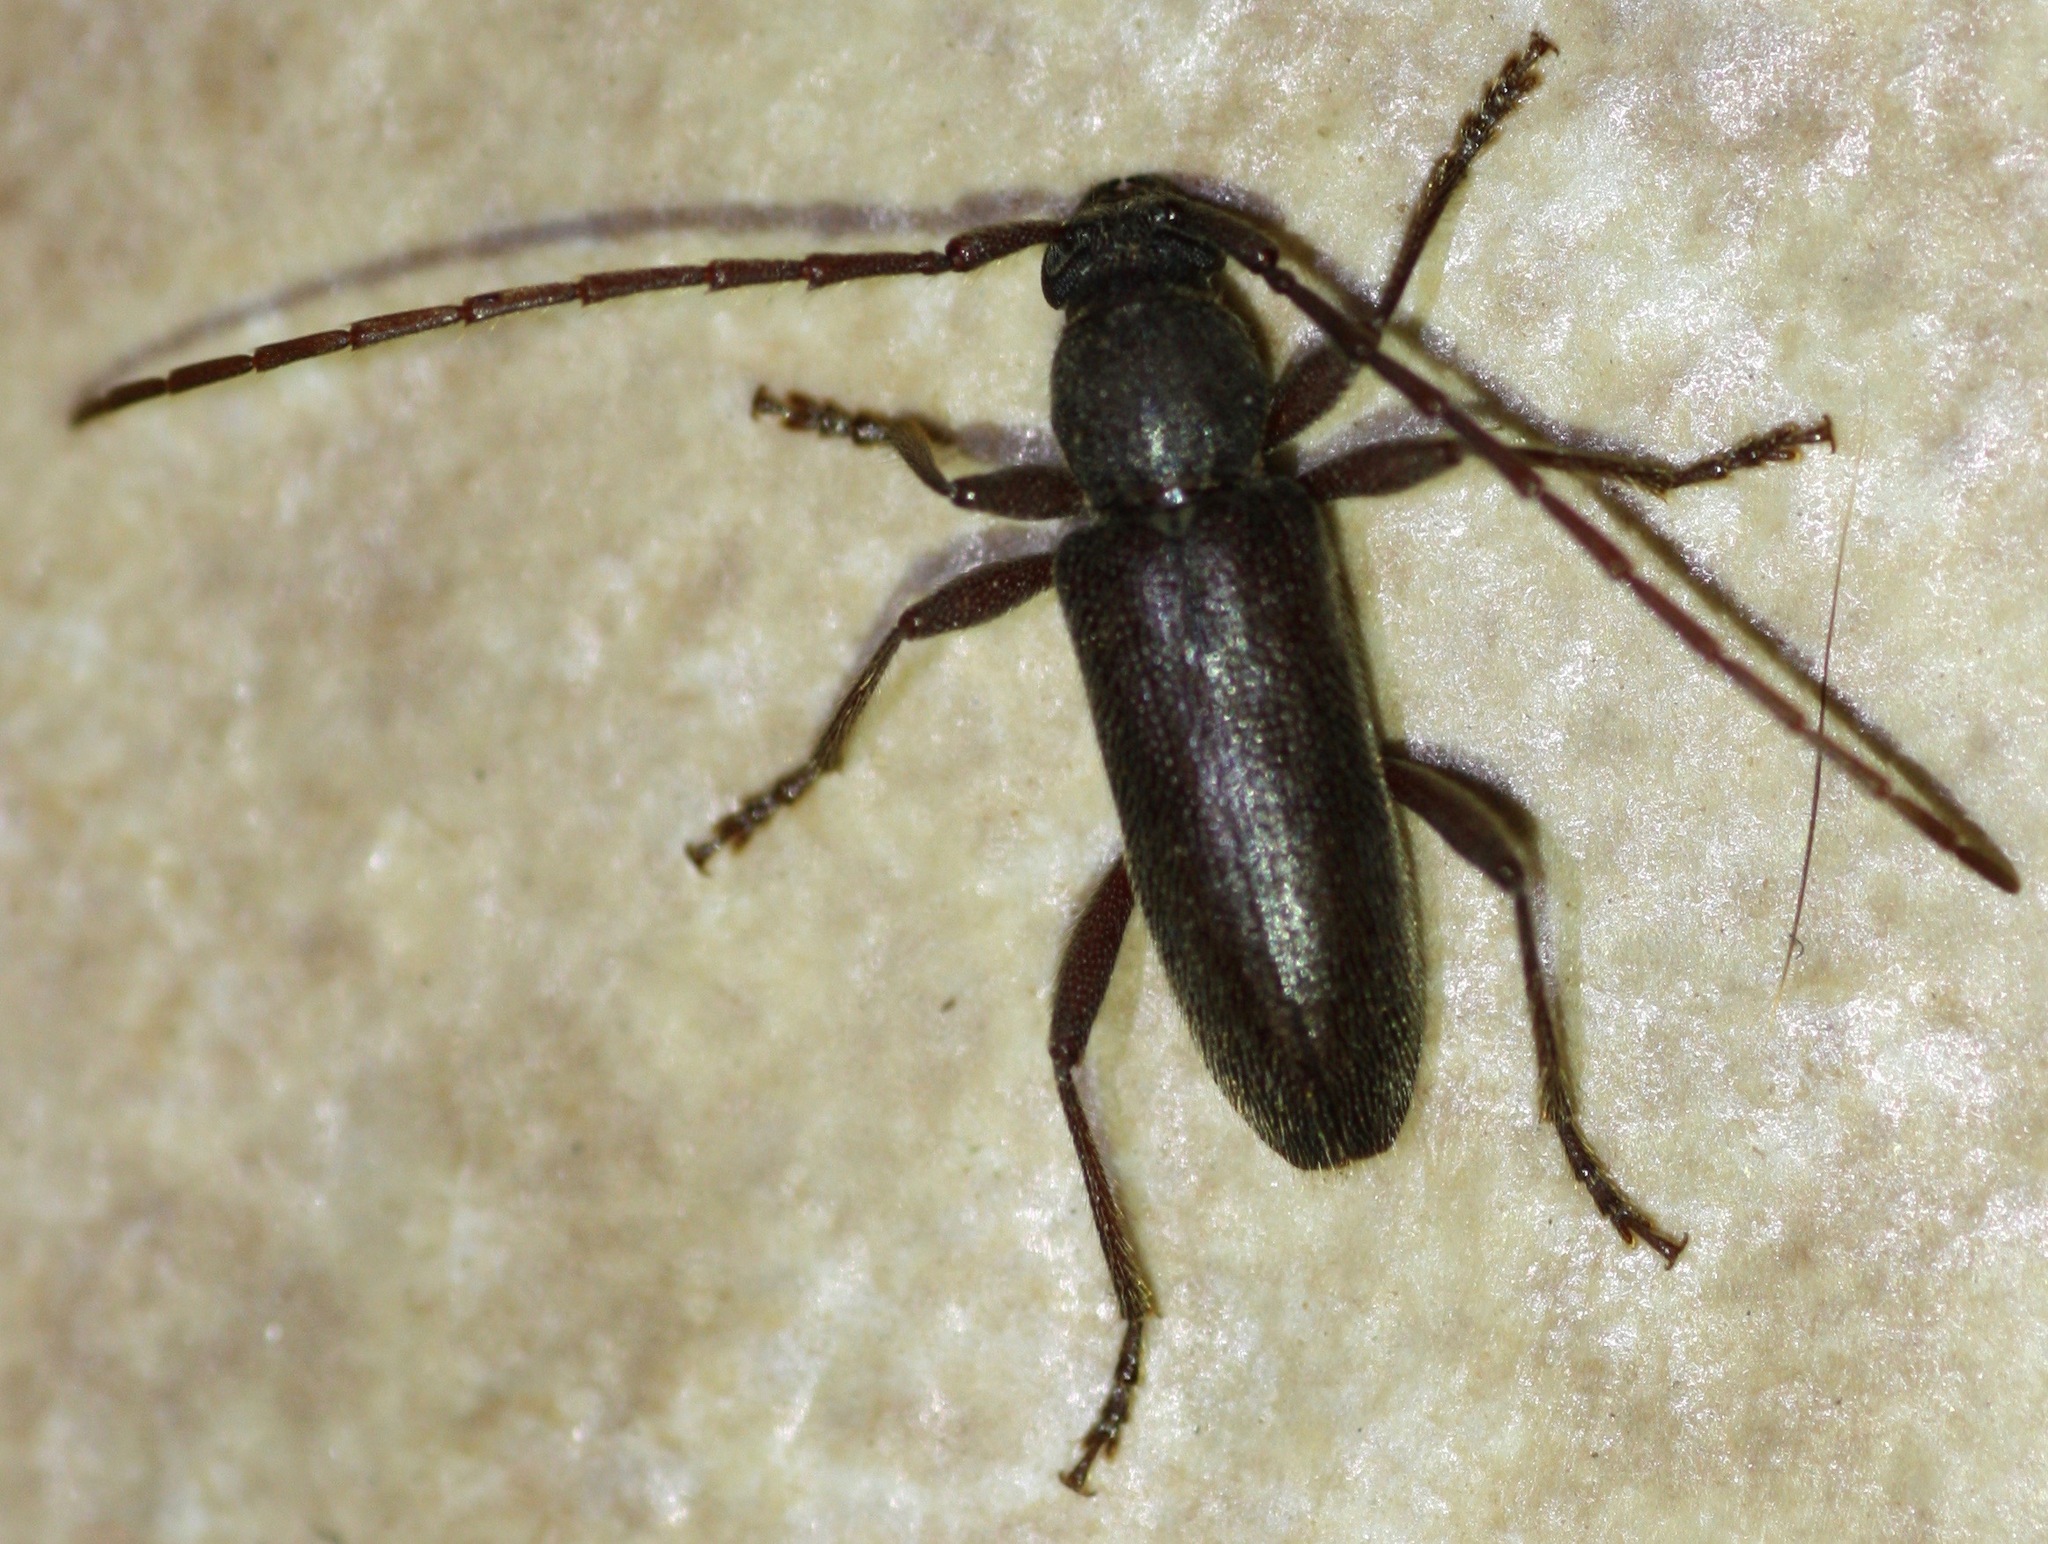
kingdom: Animalia
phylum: Arthropoda
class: Insecta
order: Coleoptera
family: Cerambycidae
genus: Anelaphus
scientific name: Anelaphus moestus
